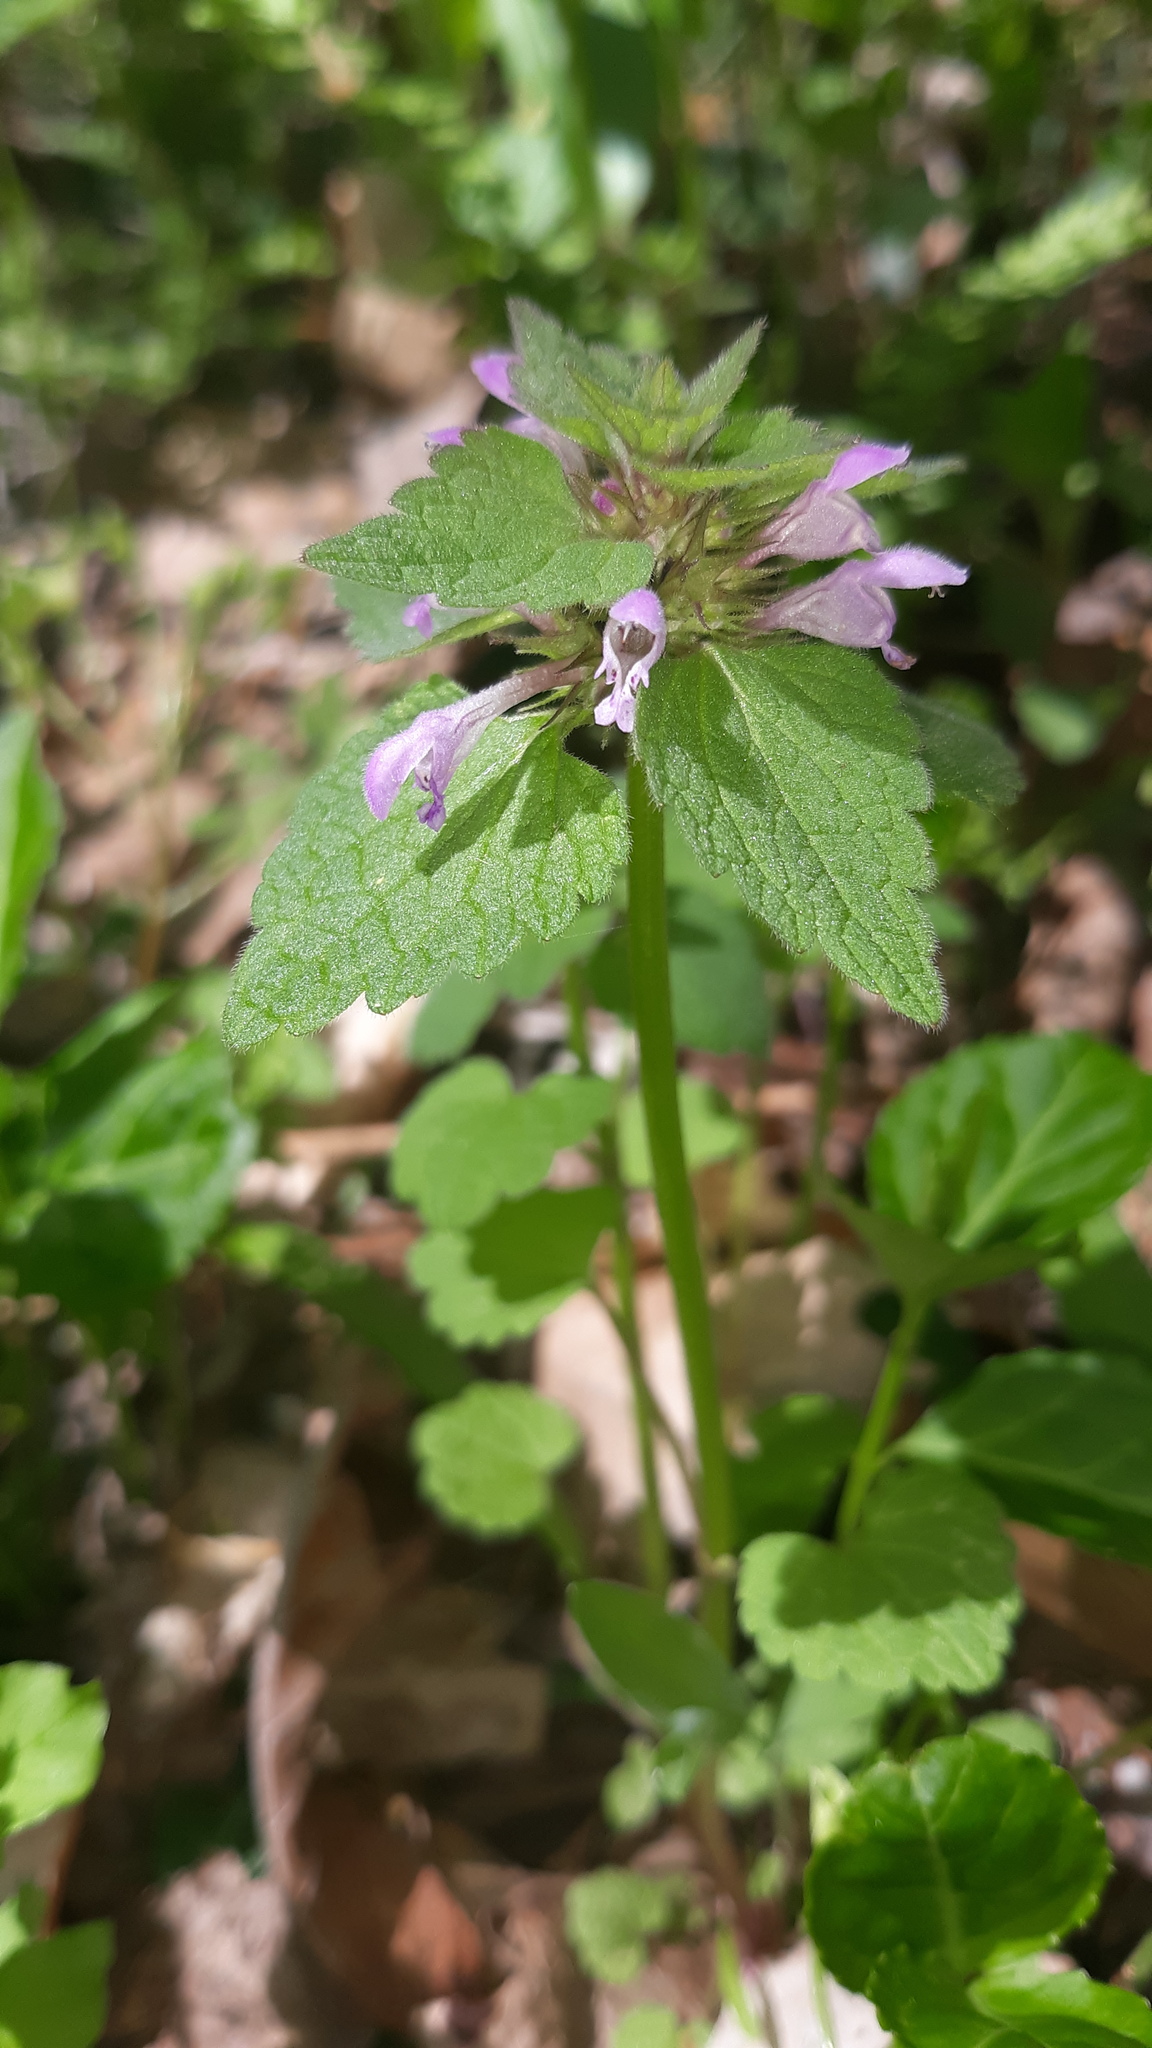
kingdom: Plantae
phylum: Tracheophyta
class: Magnoliopsida
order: Lamiales
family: Lamiaceae
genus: Lamium
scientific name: Lamium purpureum
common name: Red dead-nettle
